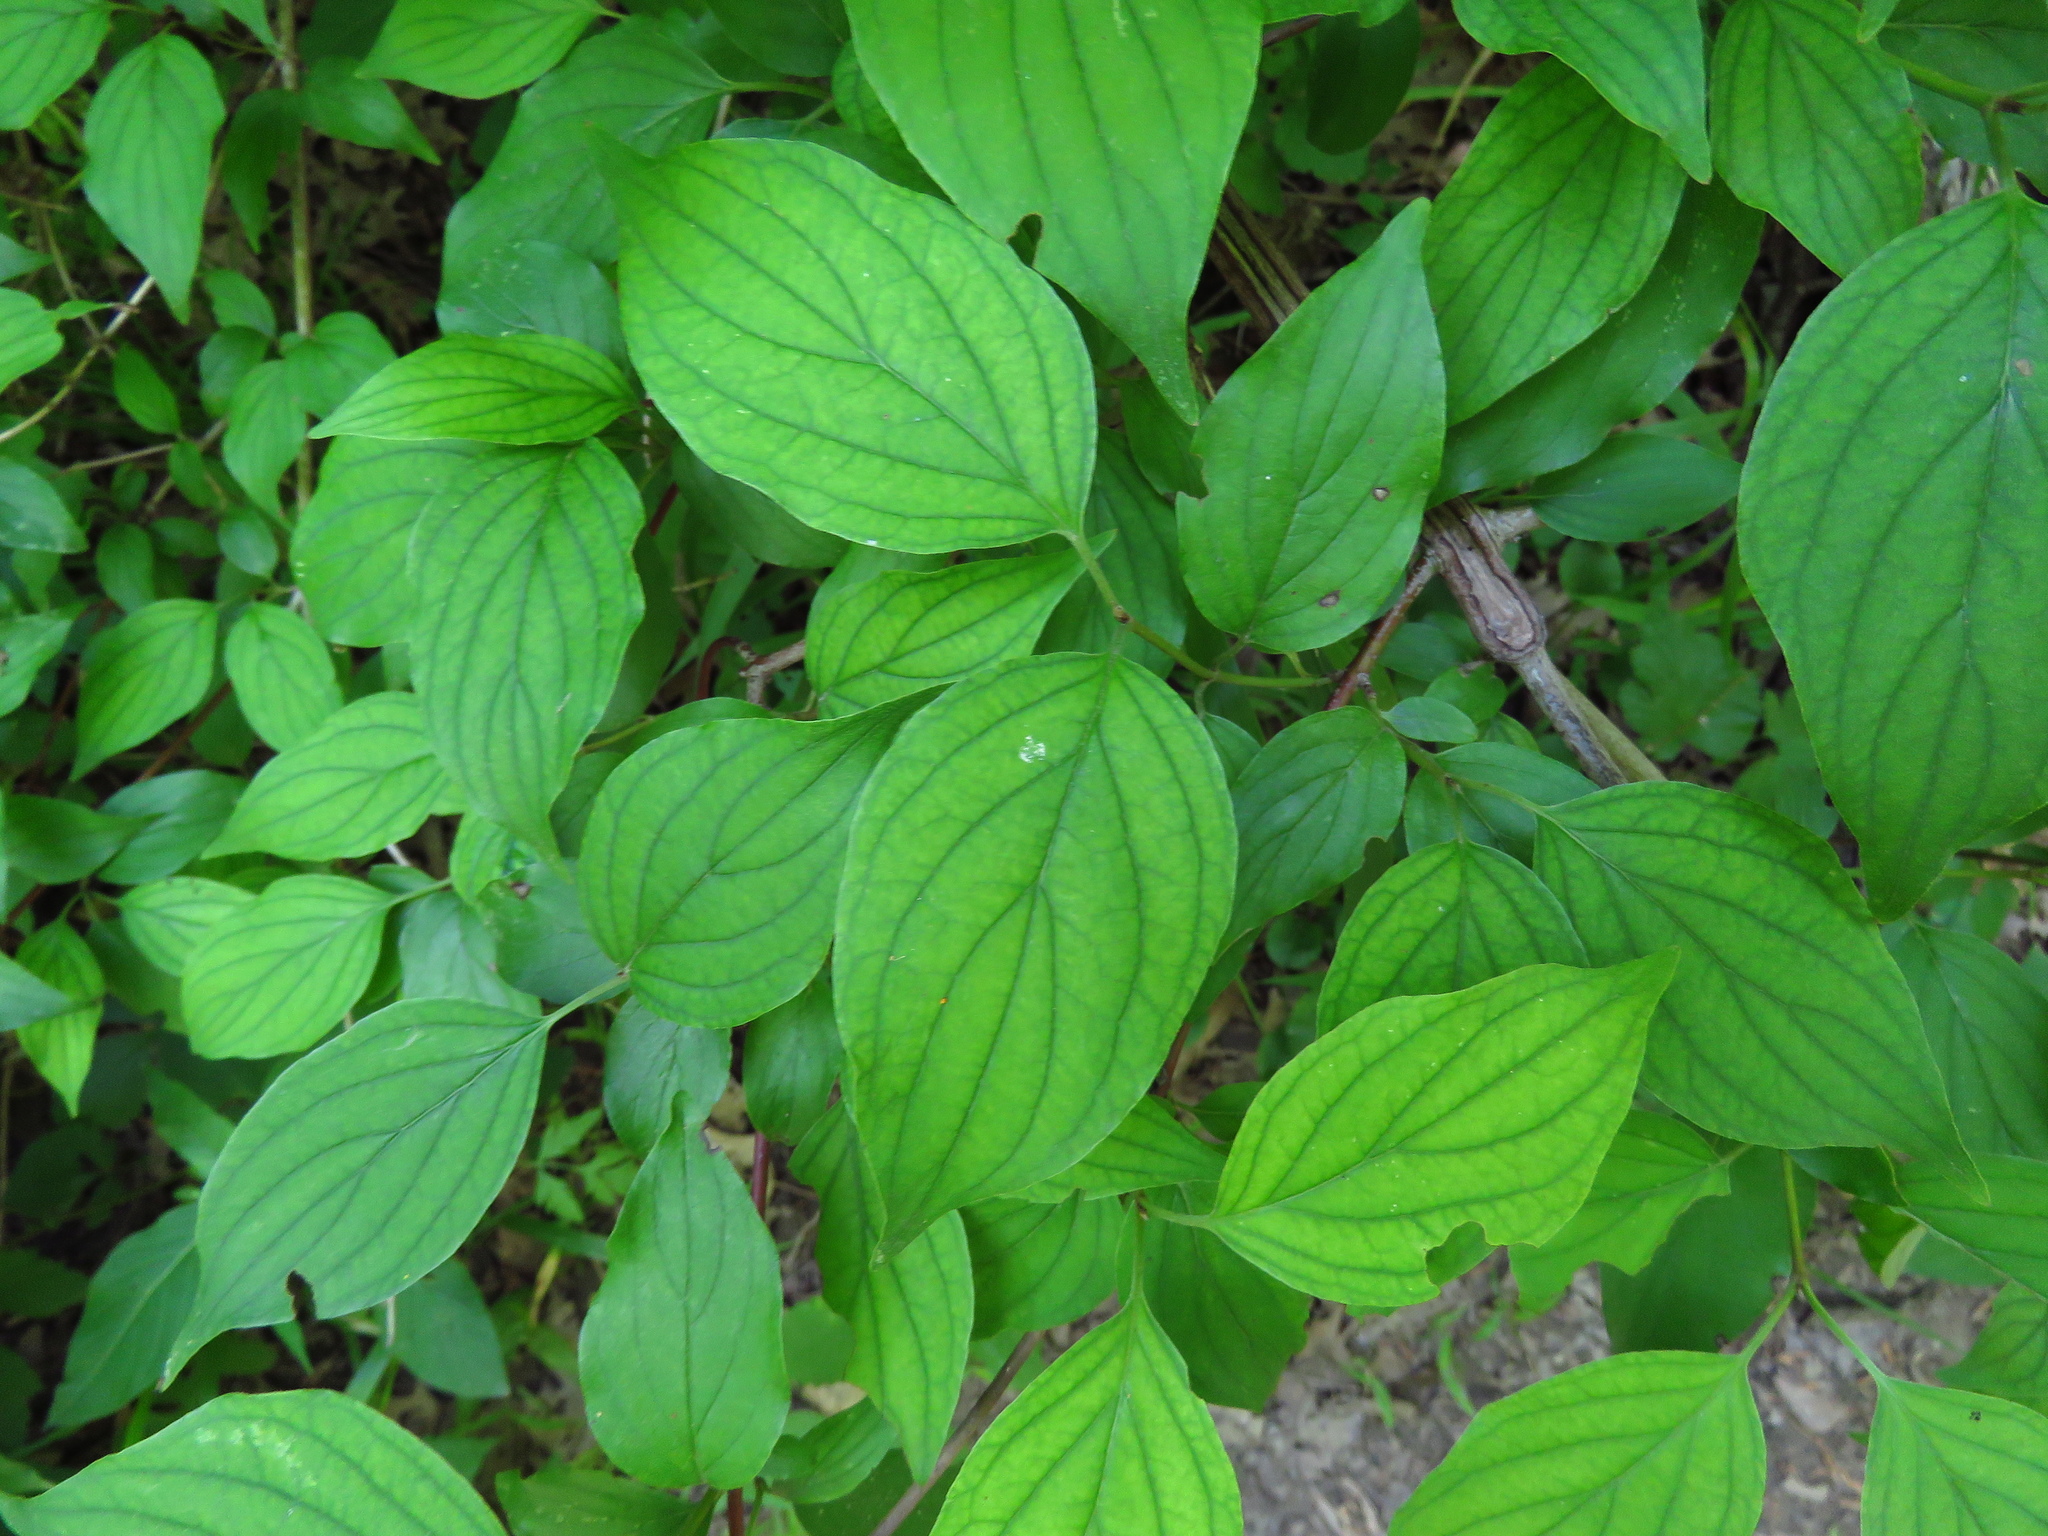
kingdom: Plantae
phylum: Tracheophyta
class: Magnoliopsida
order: Cornales
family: Cornaceae
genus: Cornus
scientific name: Cornus drummondii
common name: Rough-leaf dogwood
